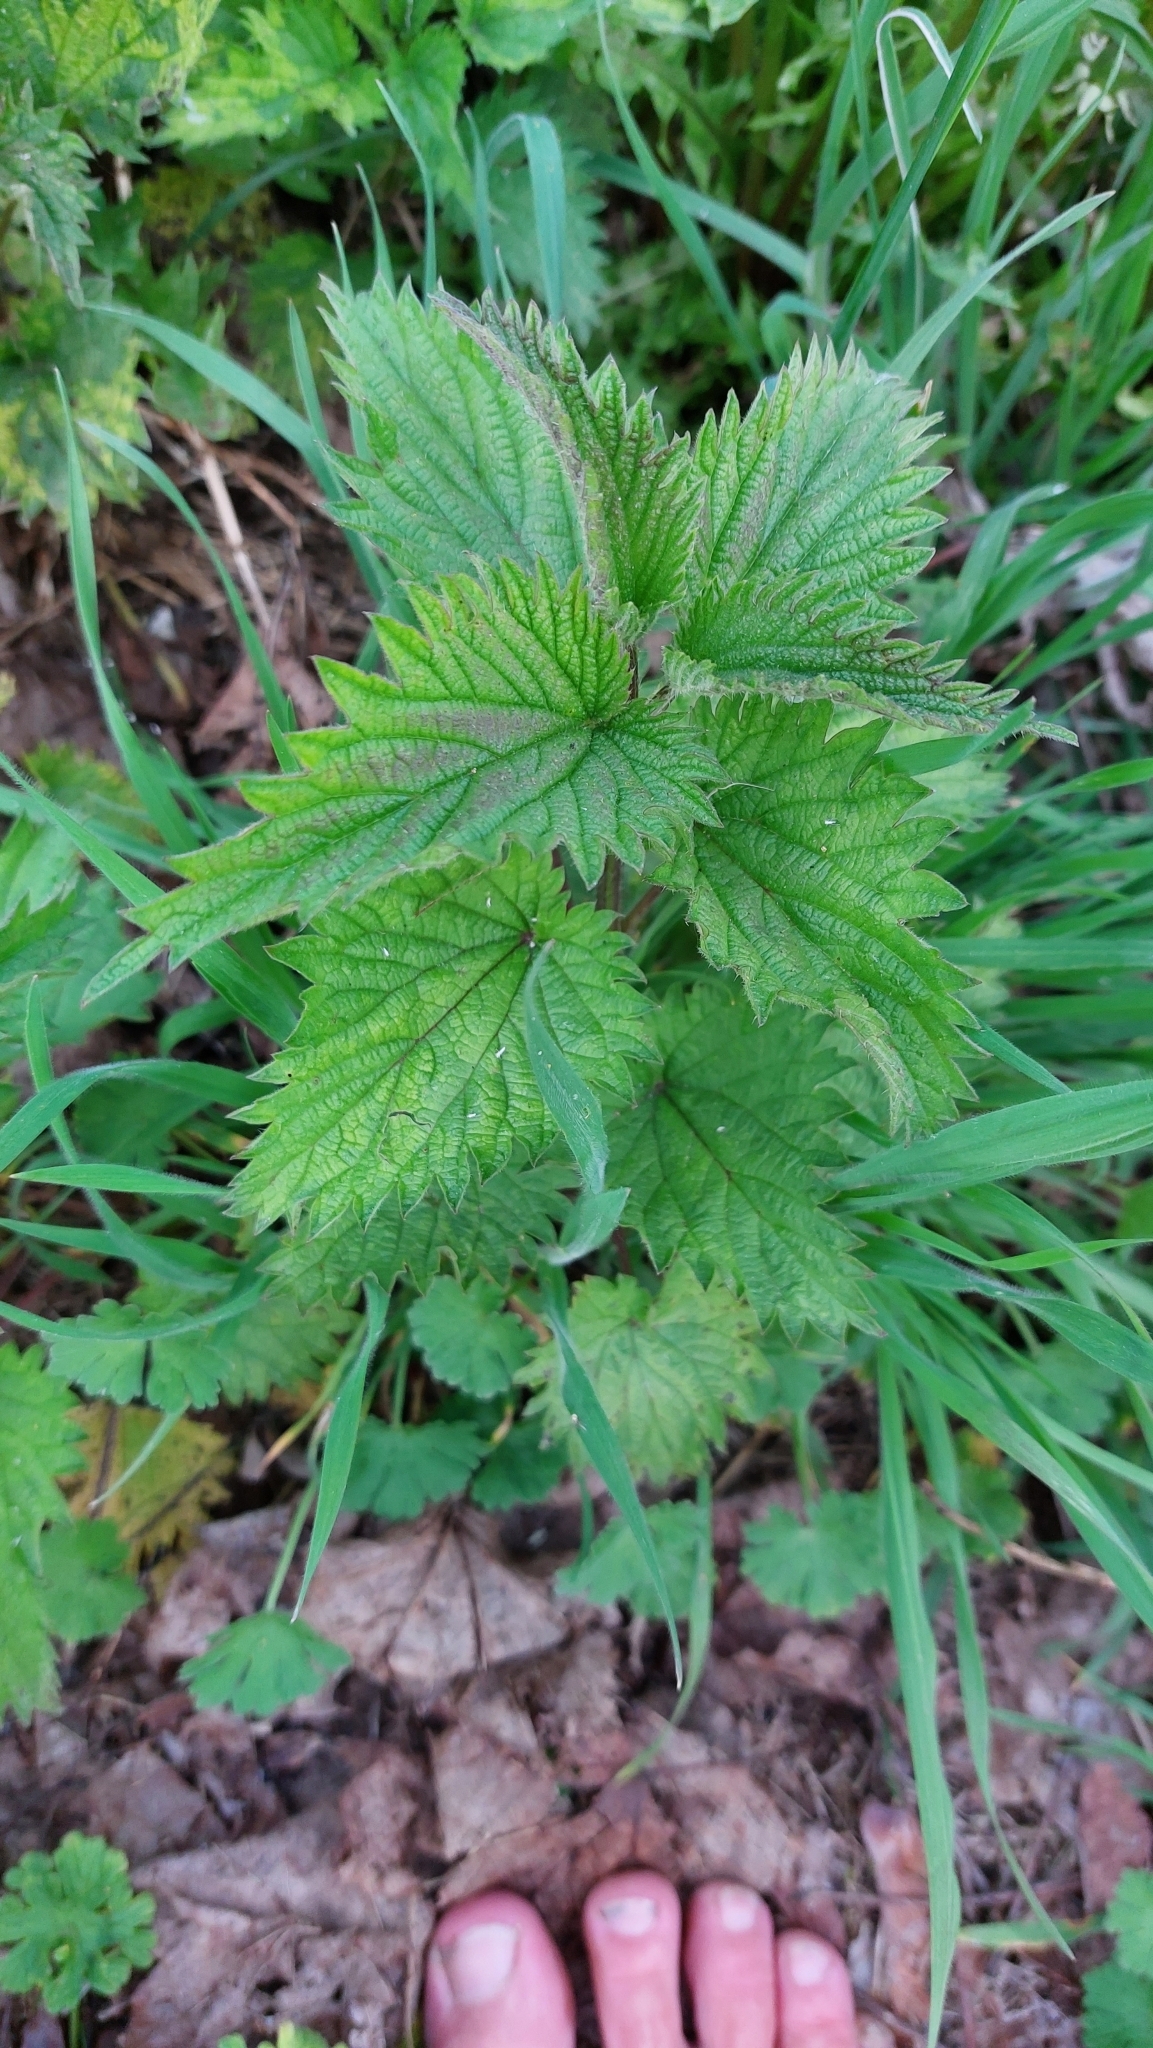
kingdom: Plantae
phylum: Tracheophyta
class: Magnoliopsida
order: Rosales
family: Urticaceae
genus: Urtica
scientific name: Urtica dioica
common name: Common nettle
